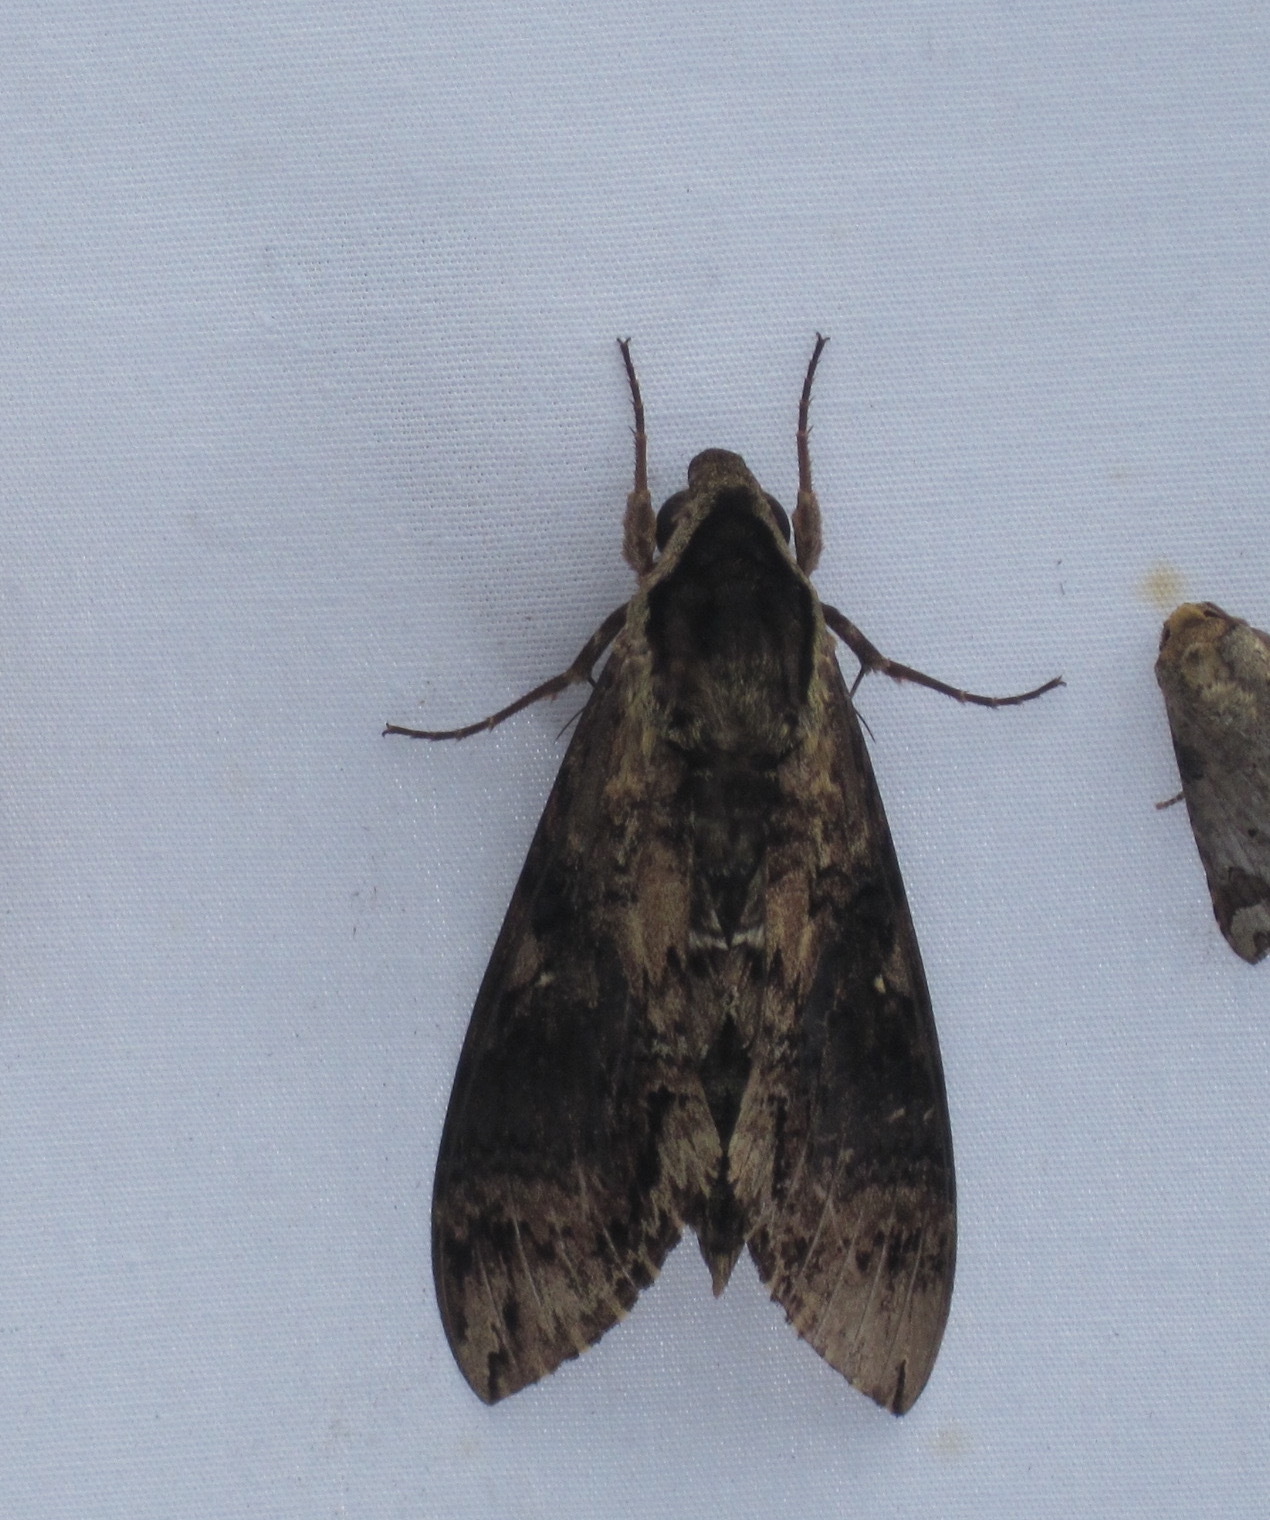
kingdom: Animalia
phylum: Arthropoda
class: Insecta
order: Lepidoptera
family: Sphingidae
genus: Manduca
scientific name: Manduca pellenia
